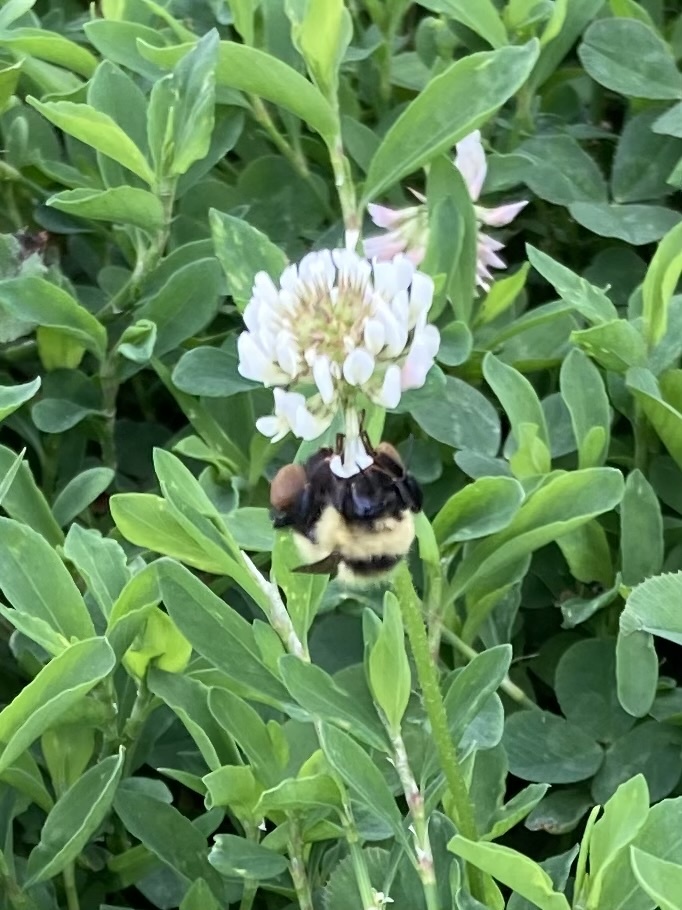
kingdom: Animalia
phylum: Arthropoda
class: Insecta
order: Hymenoptera
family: Apidae
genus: Bombus
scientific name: Bombus rufocinctus
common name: Red-belted bumble bee
